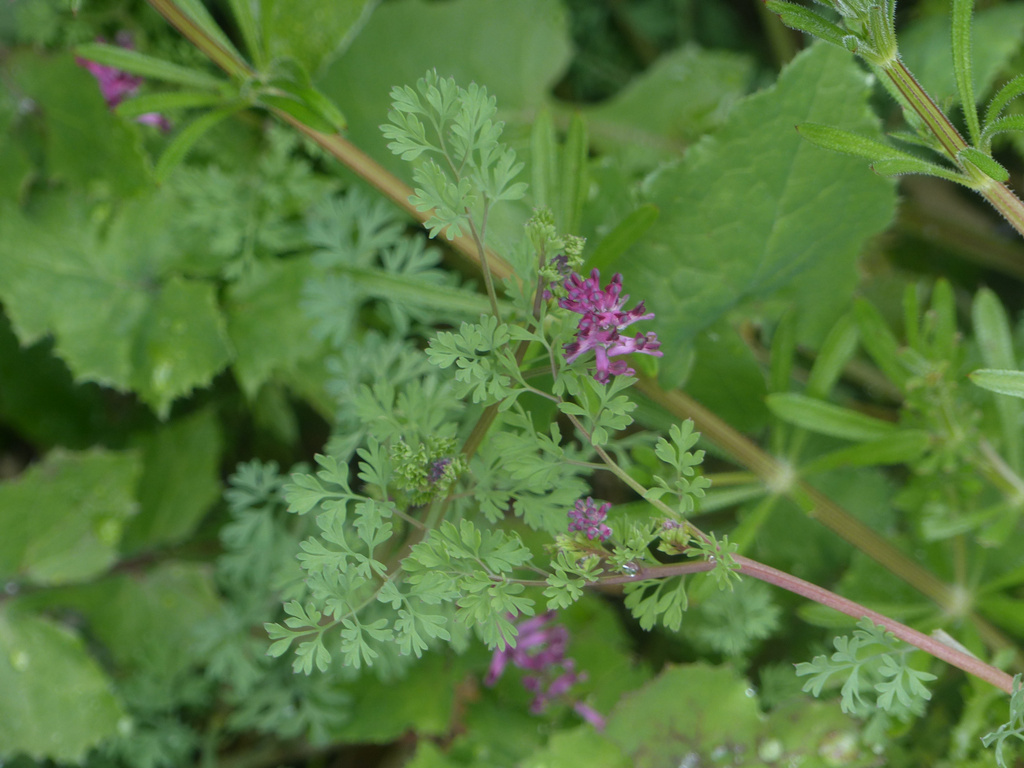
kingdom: Plantae
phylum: Tracheophyta
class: Magnoliopsida
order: Ranunculales
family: Papaveraceae
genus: Fumaria
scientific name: Fumaria officinalis
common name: Common fumitory
